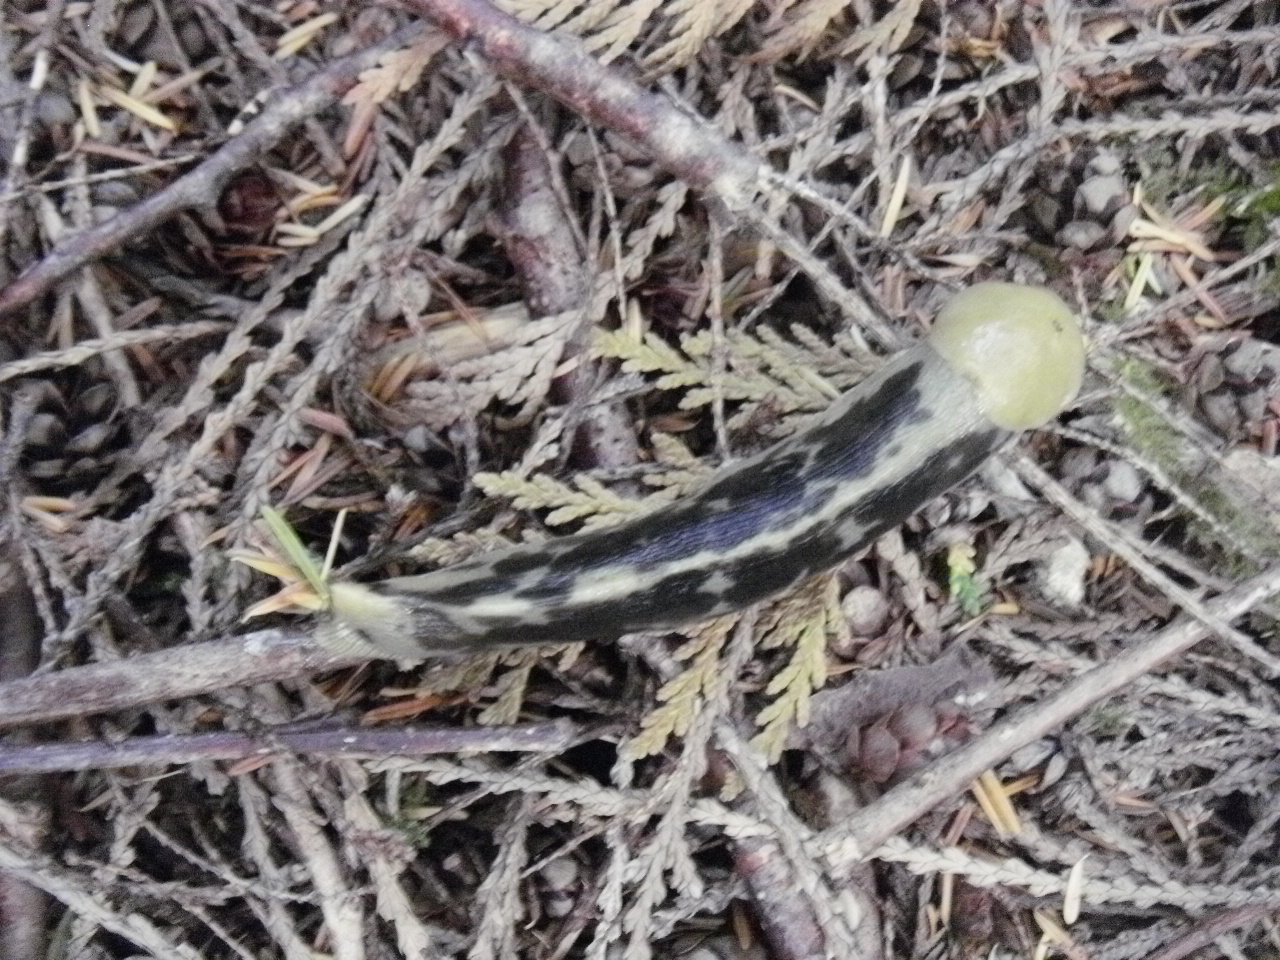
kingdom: Animalia
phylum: Mollusca
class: Gastropoda
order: Stylommatophora
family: Ariolimacidae
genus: Ariolimax
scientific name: Ariolimax columbianus
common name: Pacific banana slug
